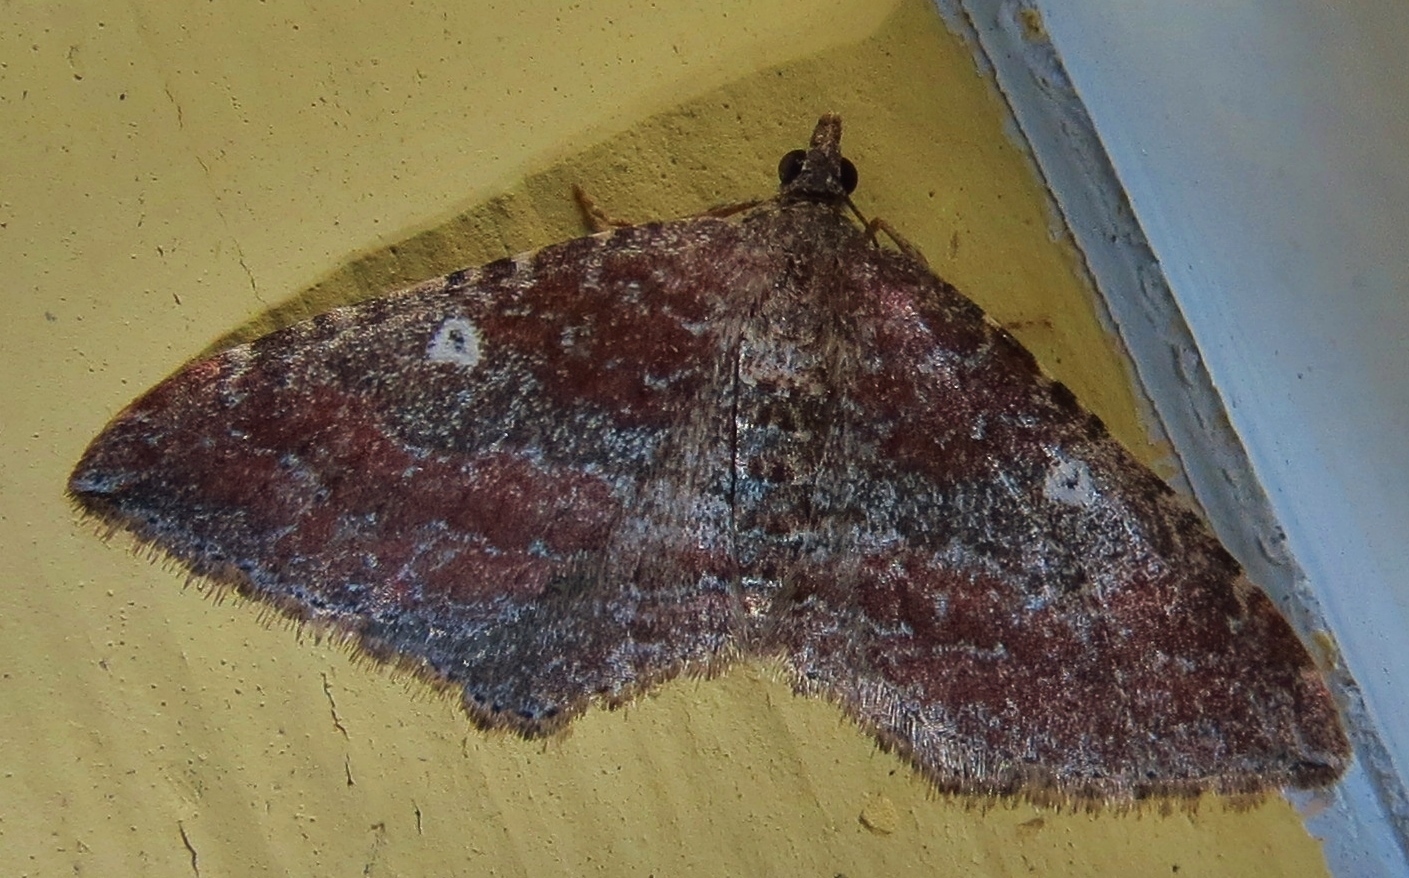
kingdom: Animalia
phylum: Arthropoda
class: Insecta
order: Lepidoptera
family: Geometridae
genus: Orthonama
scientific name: Orthonama obstipata
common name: The gem
